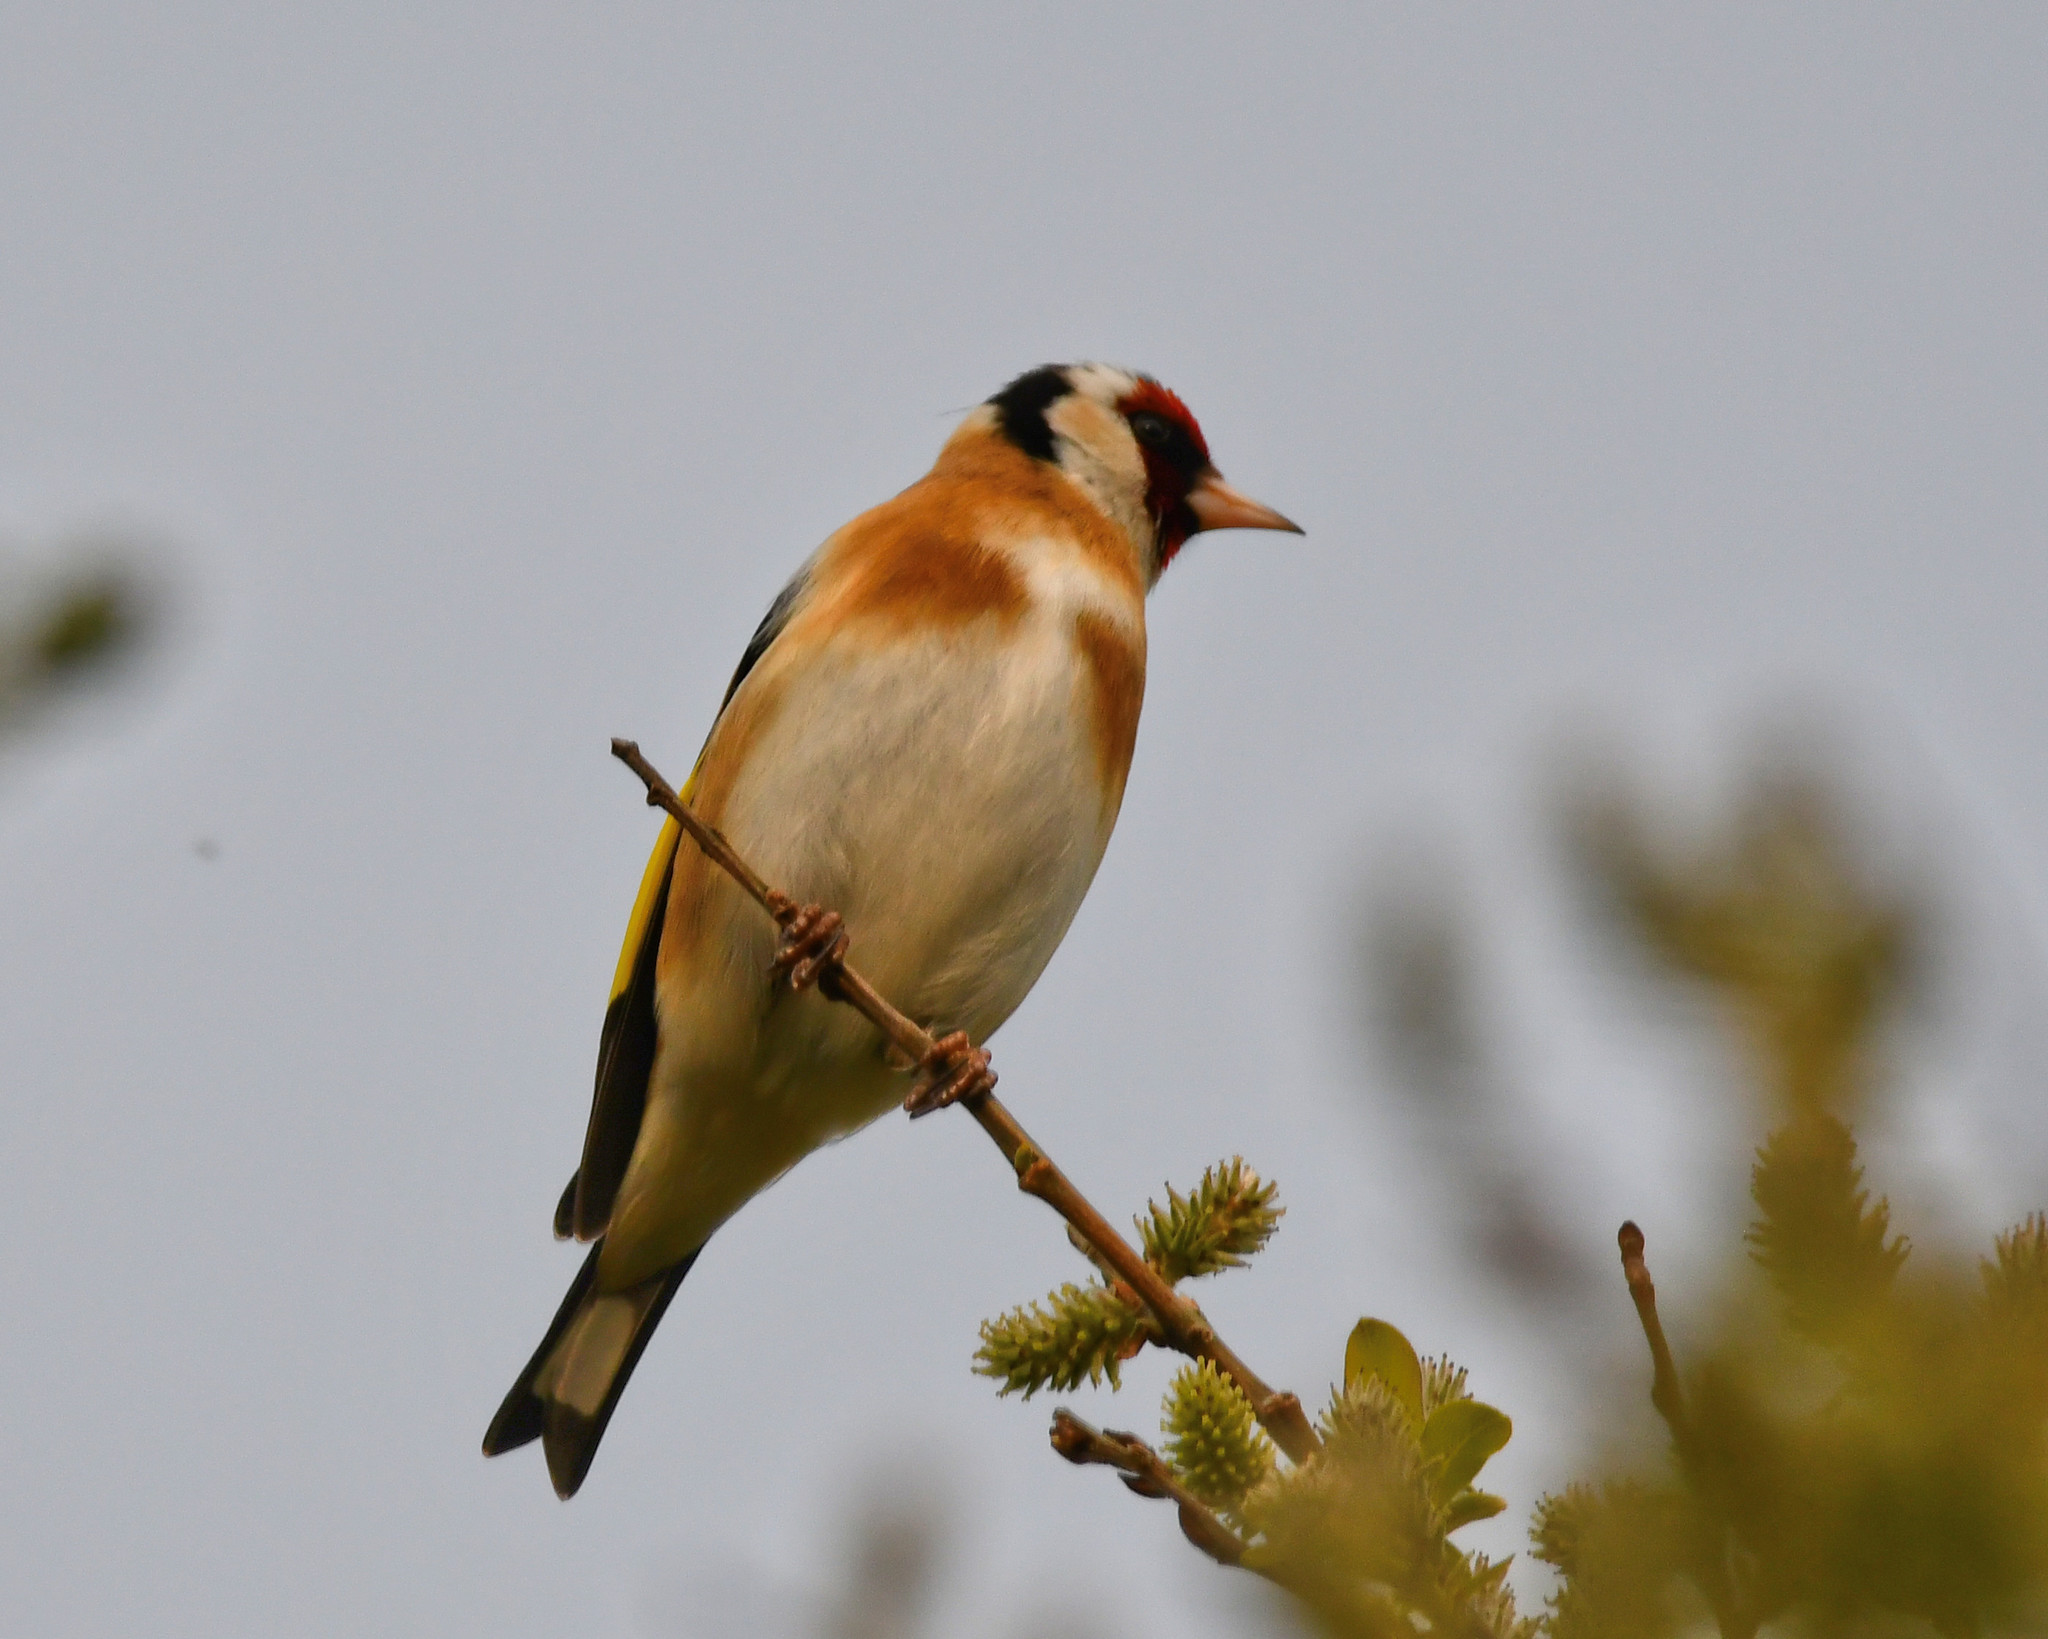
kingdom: Animalia
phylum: Chordata
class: Aves
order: Passeriformes
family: Fringillidae
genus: Carduelis
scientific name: Carduelis carduelis
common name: European goldfinch
